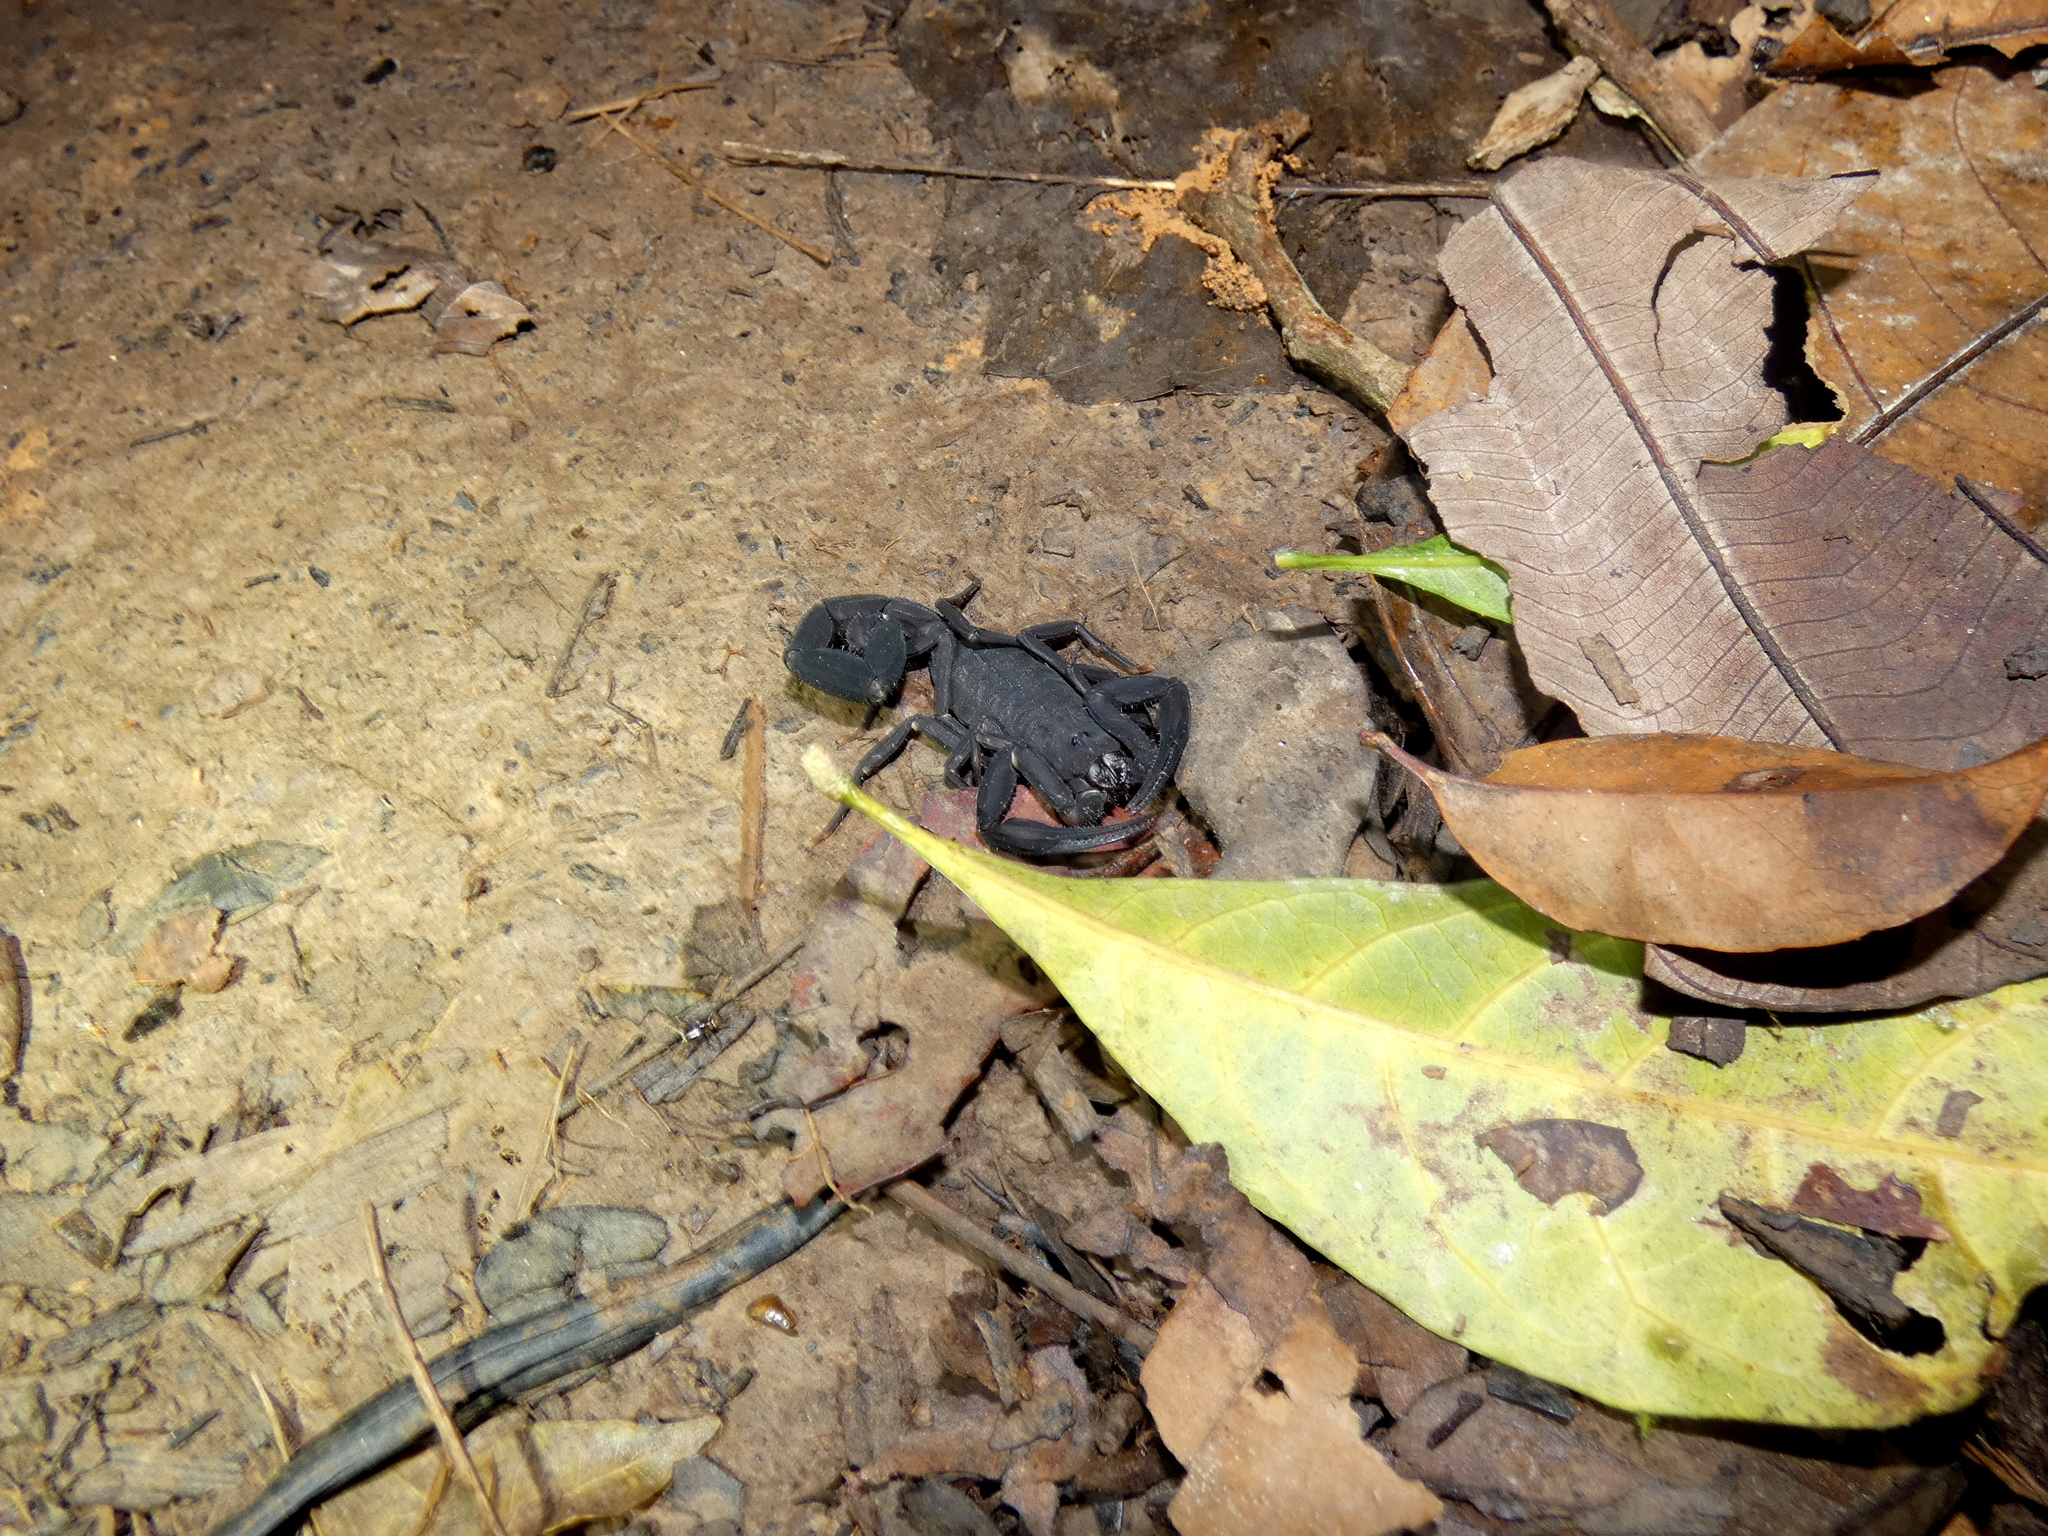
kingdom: Animalia
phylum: Arthropoda
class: Arachnida
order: Scorpiones
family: Buthidae
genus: Tityus
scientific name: Tityus asthenes
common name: Scorpions
